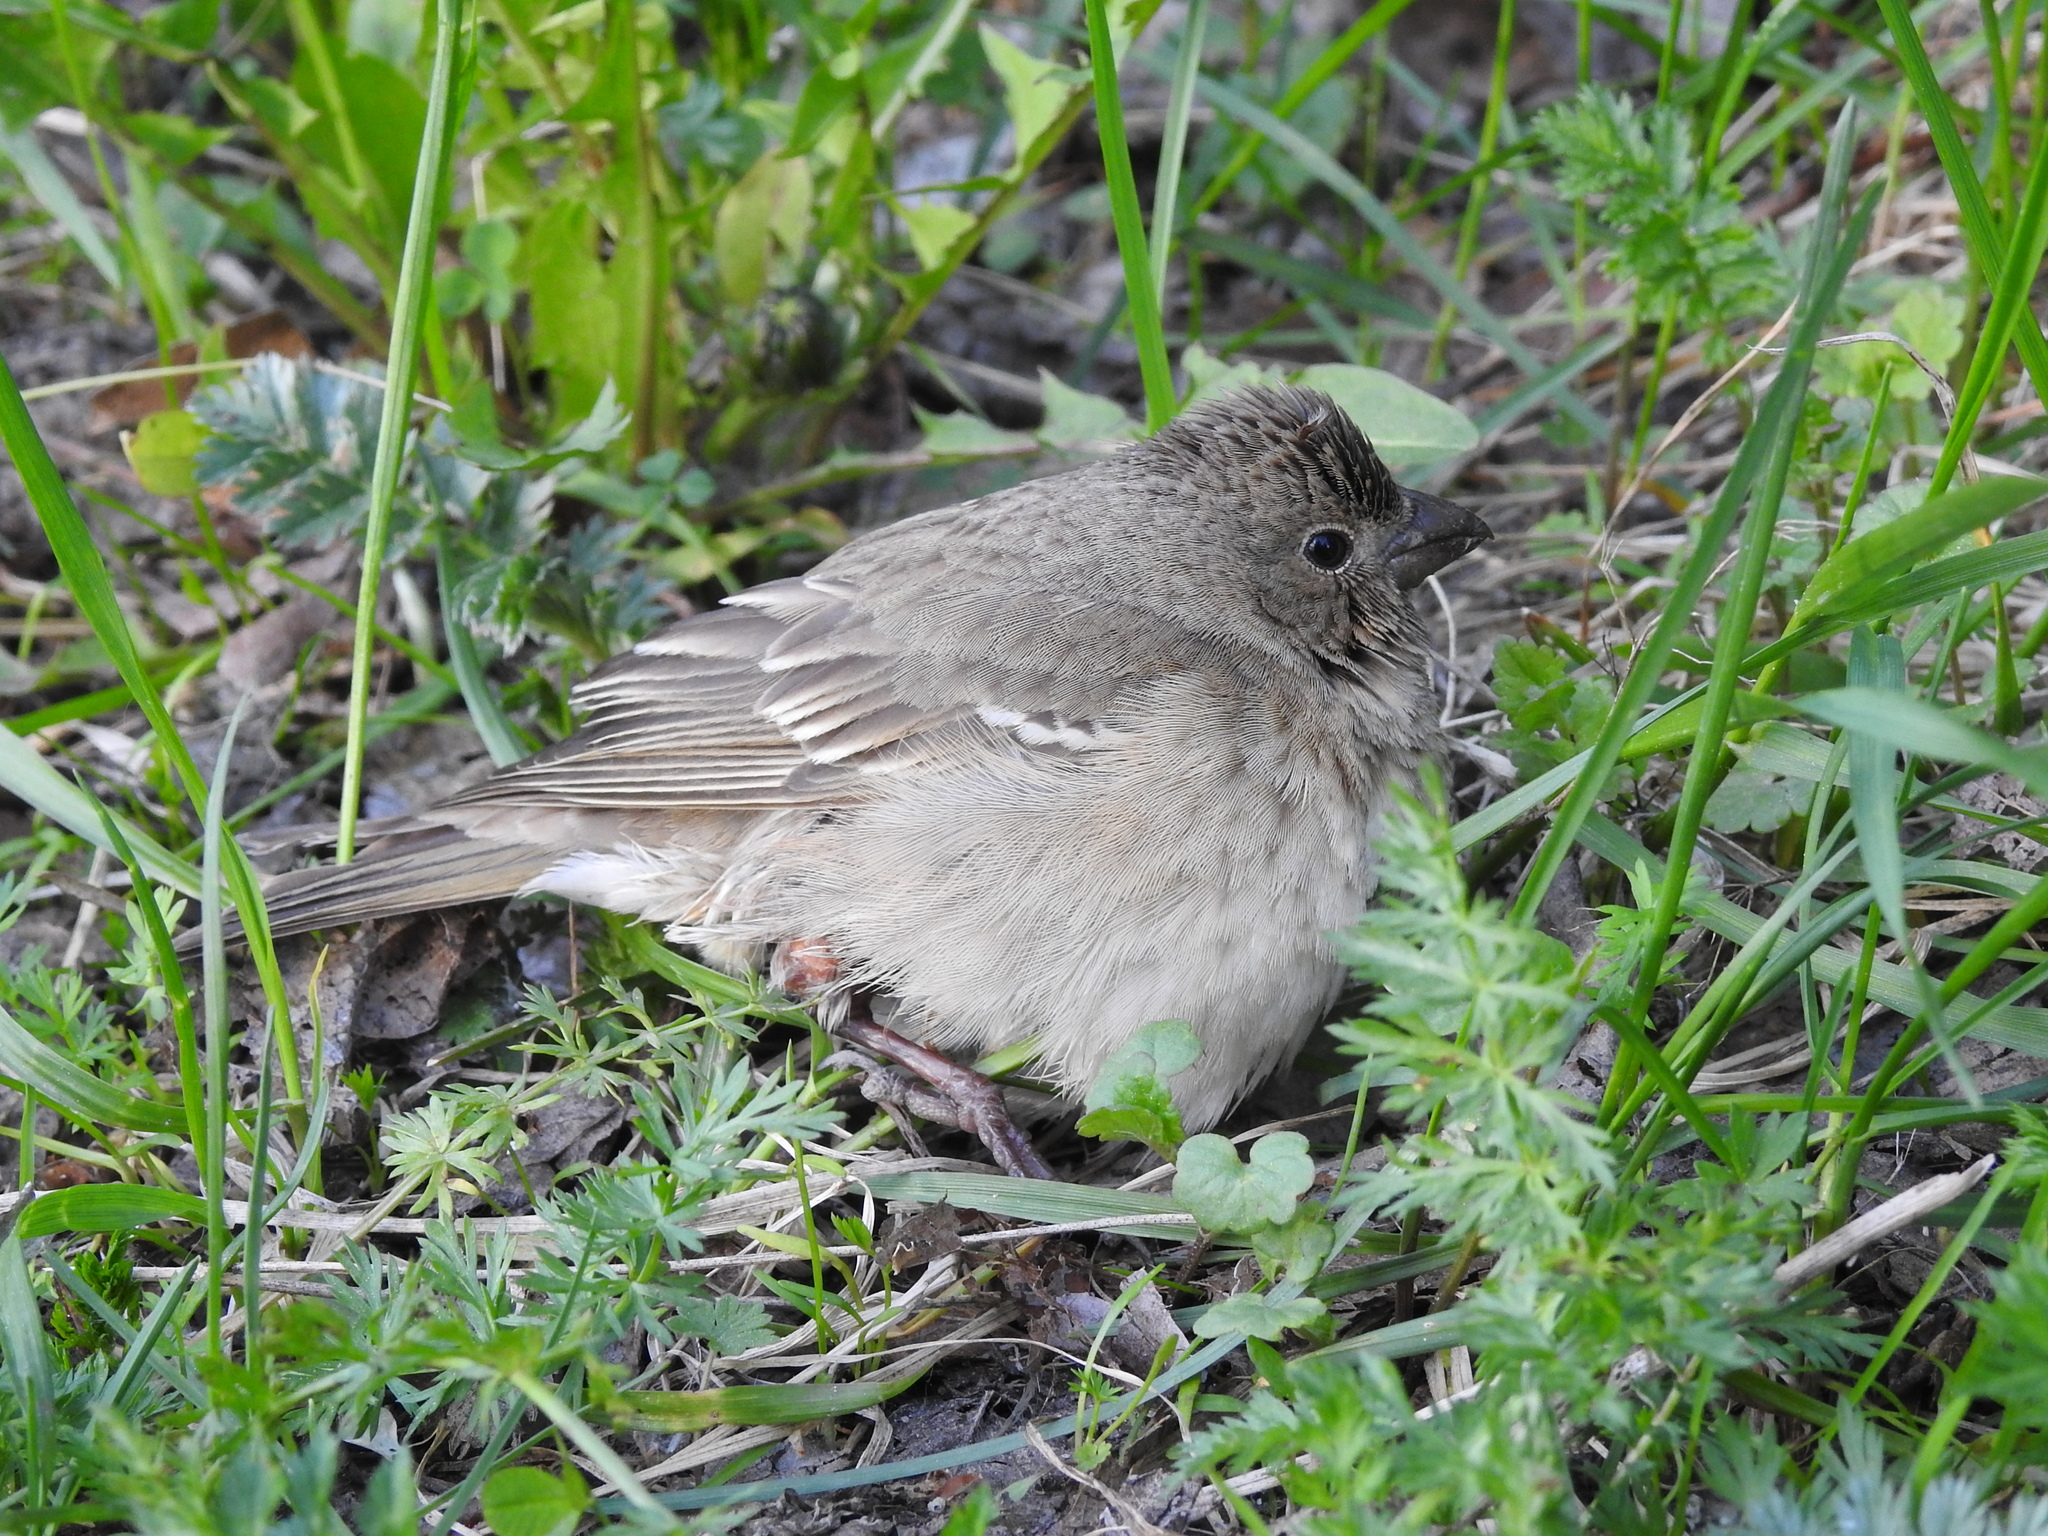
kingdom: Animalia
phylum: Chordata
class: Aves
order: Passeriformes
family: Fringillidae
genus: Carpodacus
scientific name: Carpodacus erythrinus
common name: Common rosefinch
